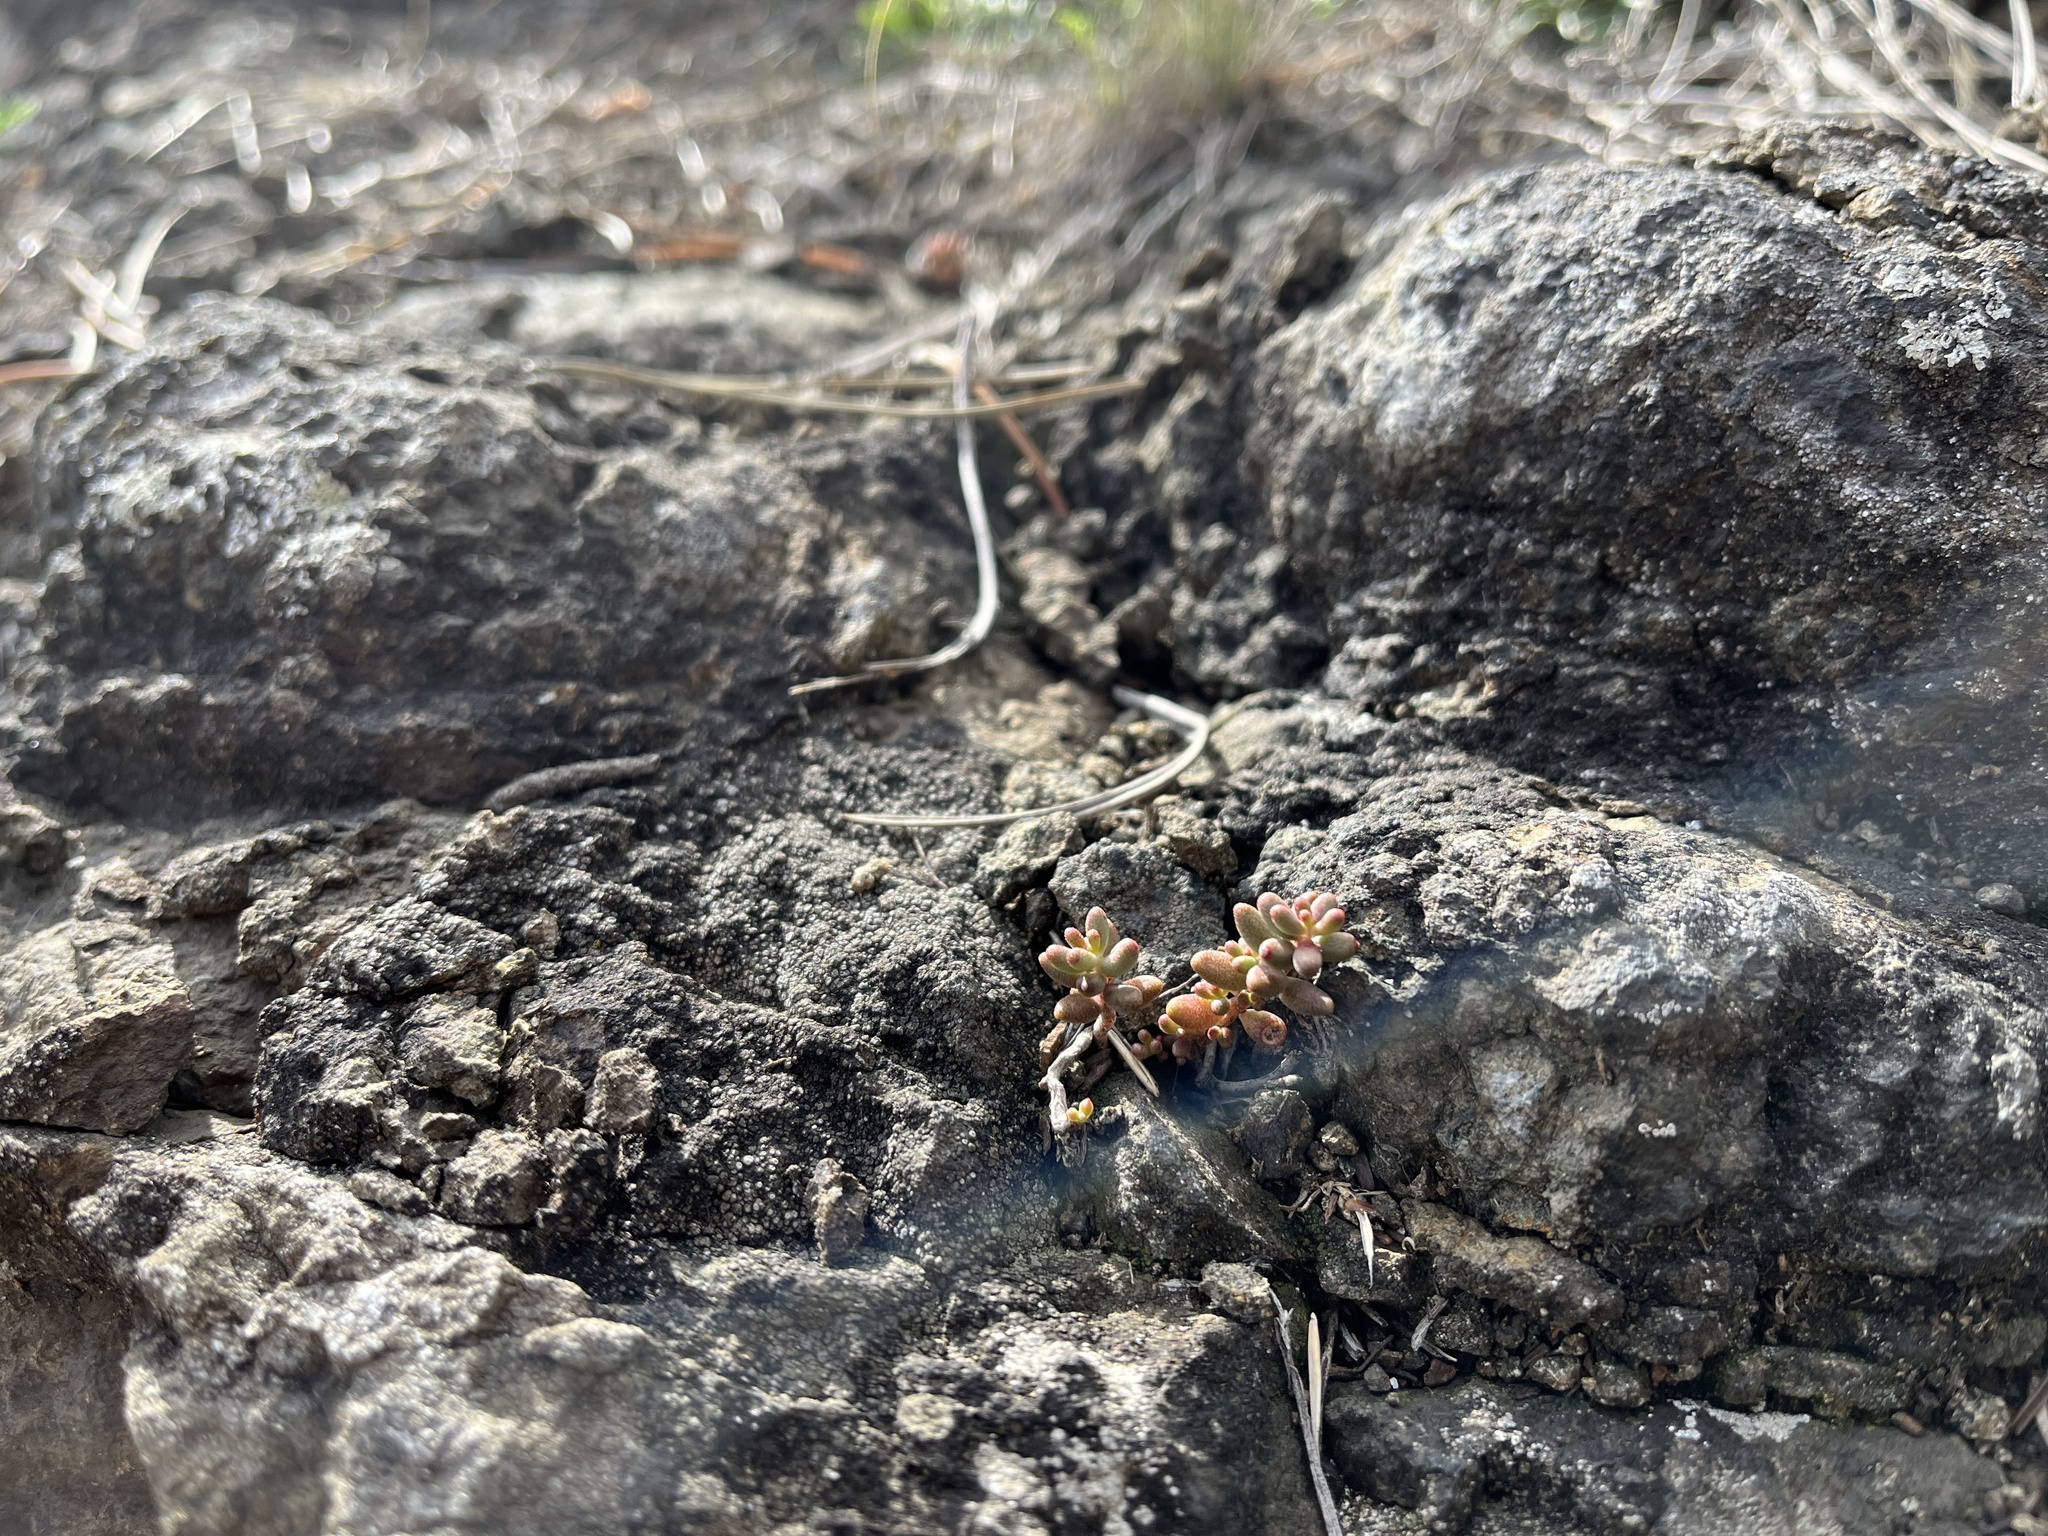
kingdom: Plantae
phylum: Tracheophyta
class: Magnoliopsida
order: Saxifragales
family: Crassulaceae
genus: Sedum
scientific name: Sedum album
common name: White stonecrop
